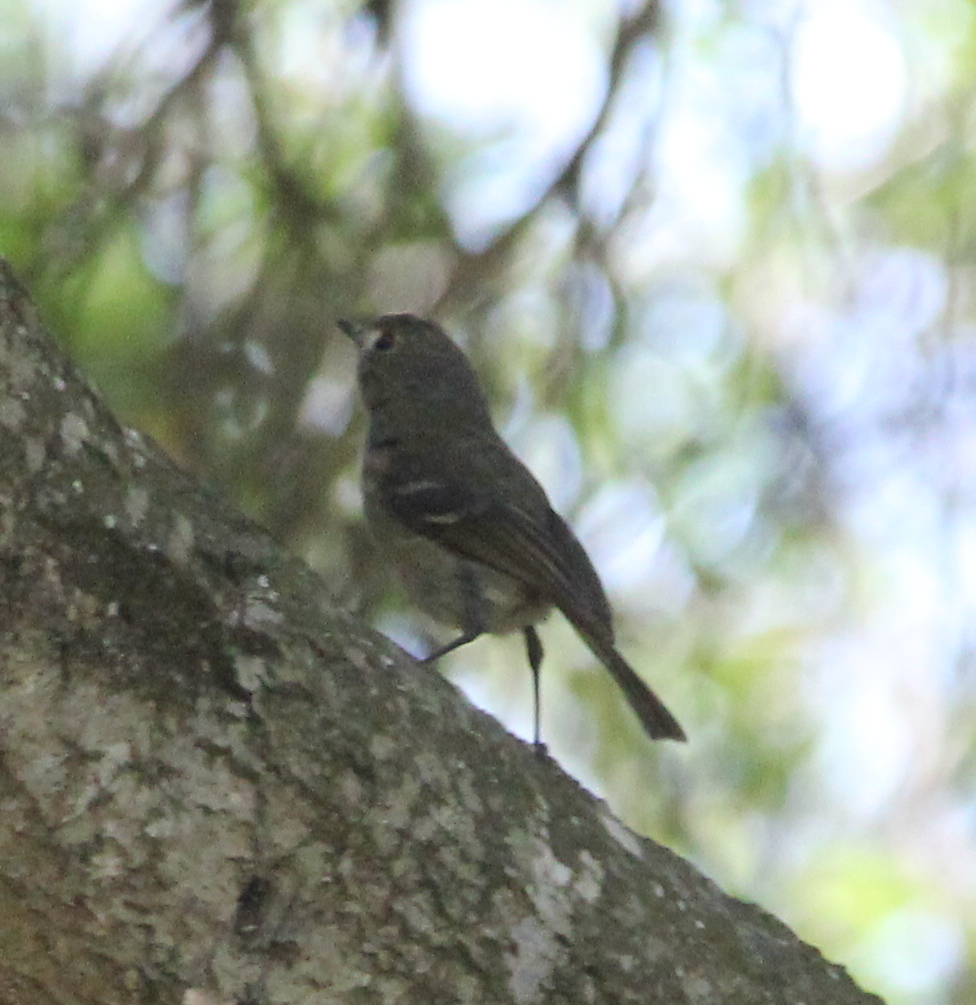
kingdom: Animalia
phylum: Chordata
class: Aves
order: Passeriformes
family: Vireonidae
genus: Vireo
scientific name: Vireo huttoni
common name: Hutton's vireo
